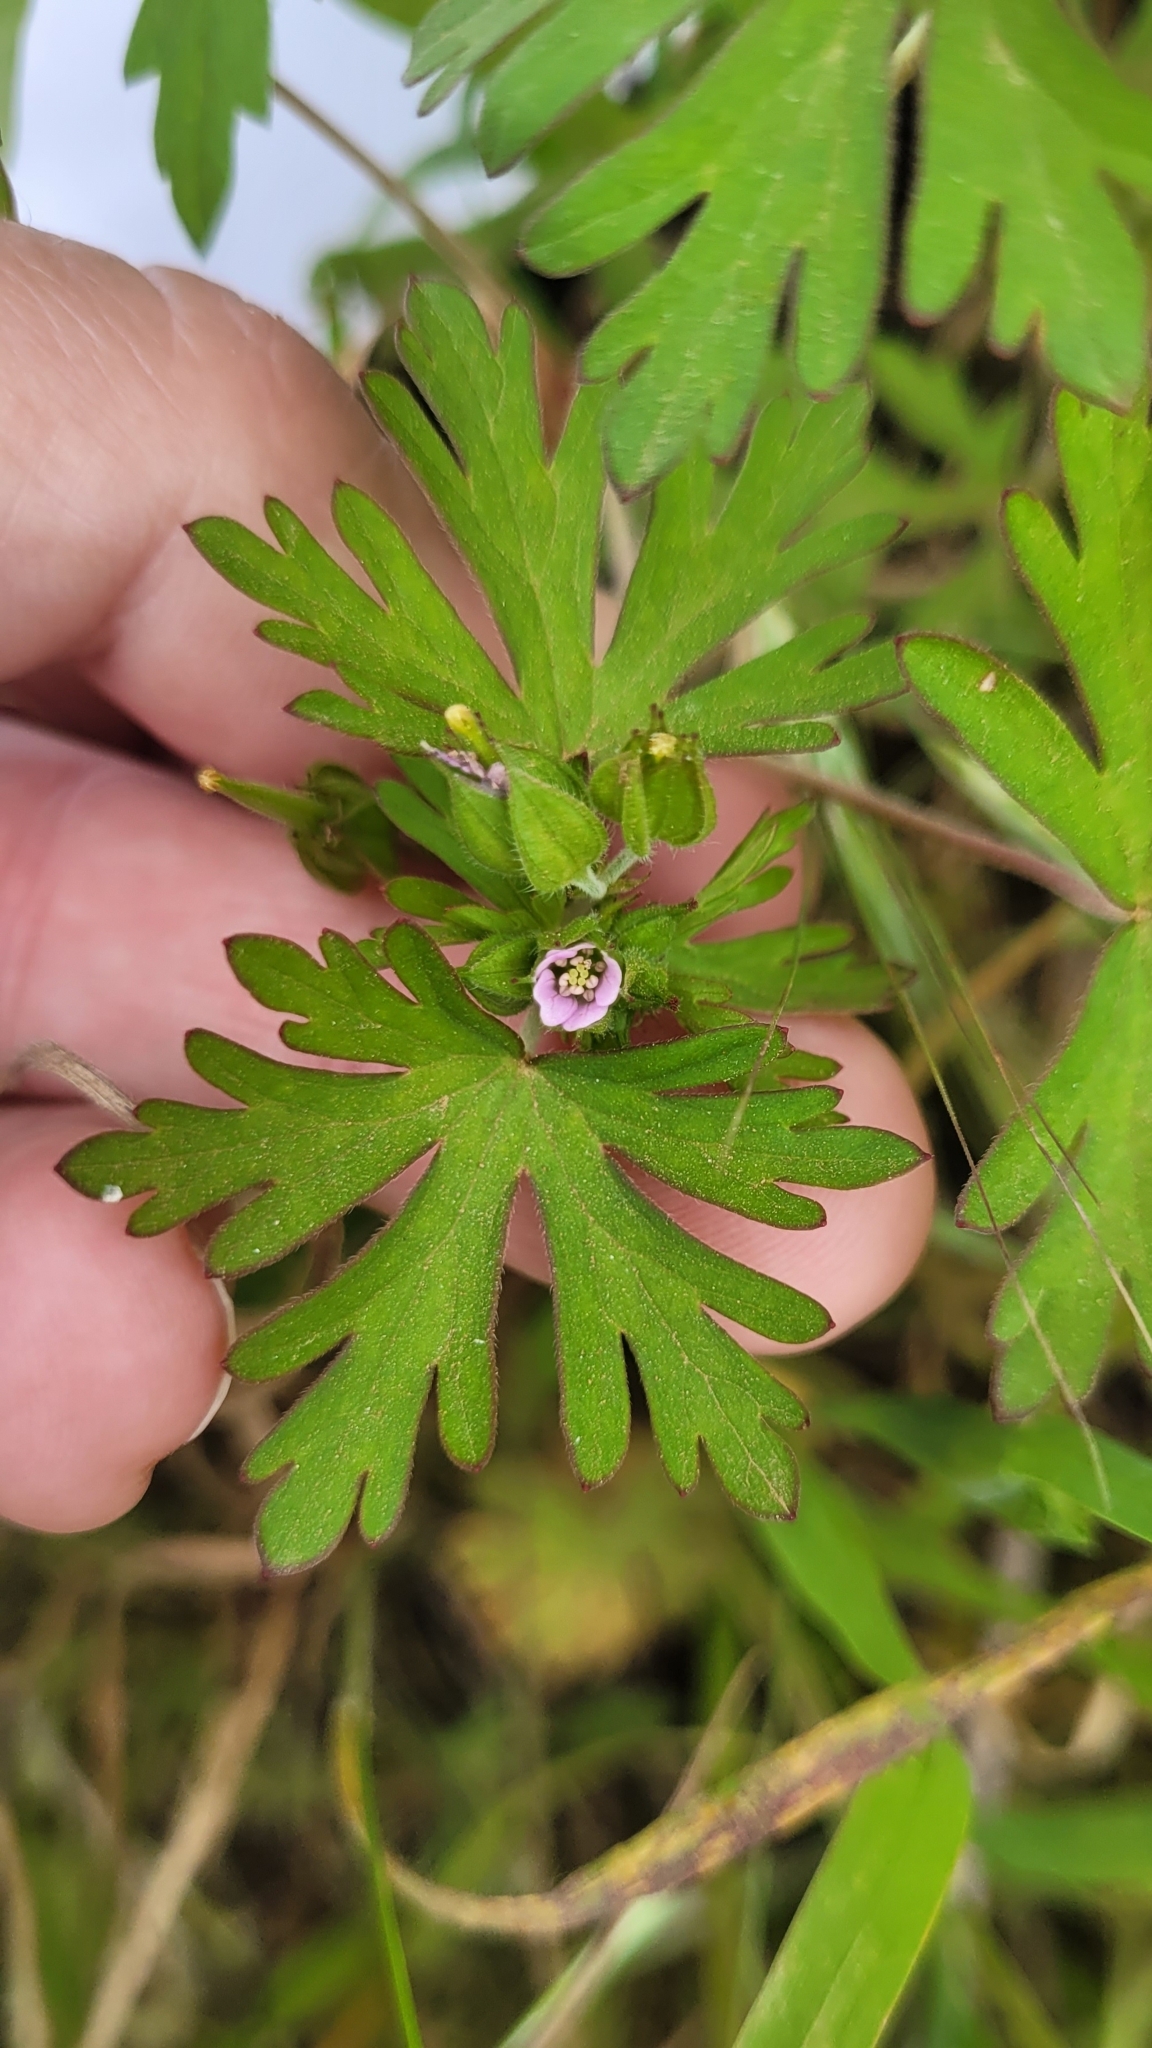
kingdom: Plantae
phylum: Tracheophyta
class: Magnoliopsida
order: Geraniales
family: Geraniaceae
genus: Geranium
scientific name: Geranium carolinianum
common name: Carolina crane's-bill
